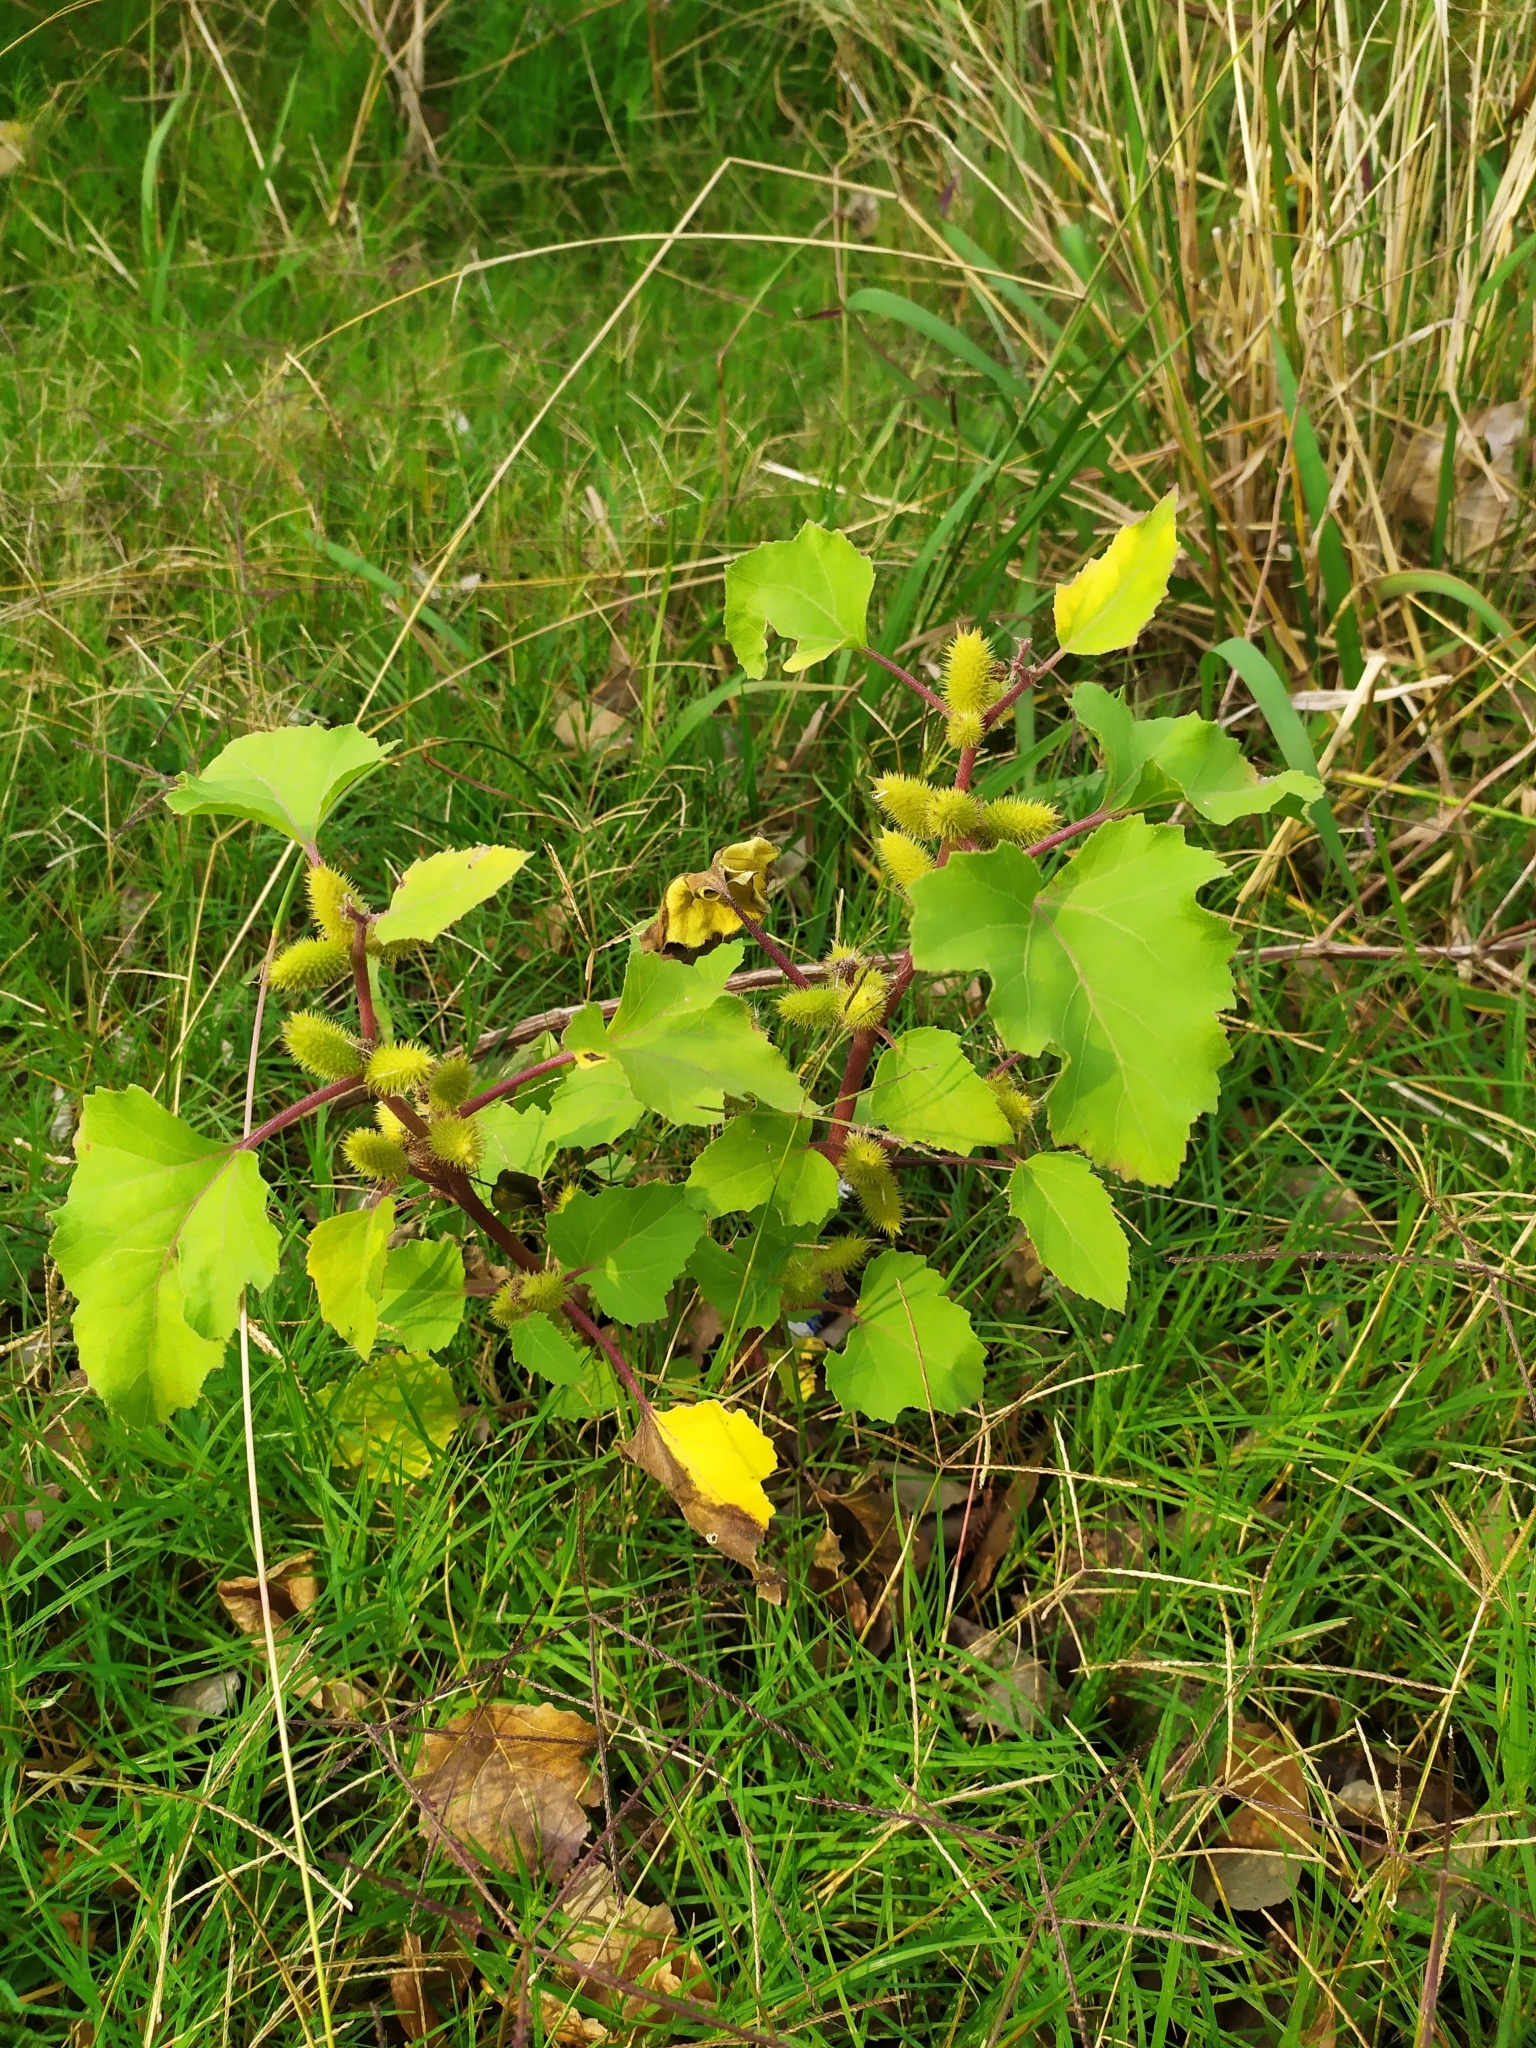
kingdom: Plantae
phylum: Tracheophyta
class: Magnoliopsida
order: Asterales
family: Asteraceae
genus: Xanthium
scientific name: Xanthium orientale
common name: Californian burr
